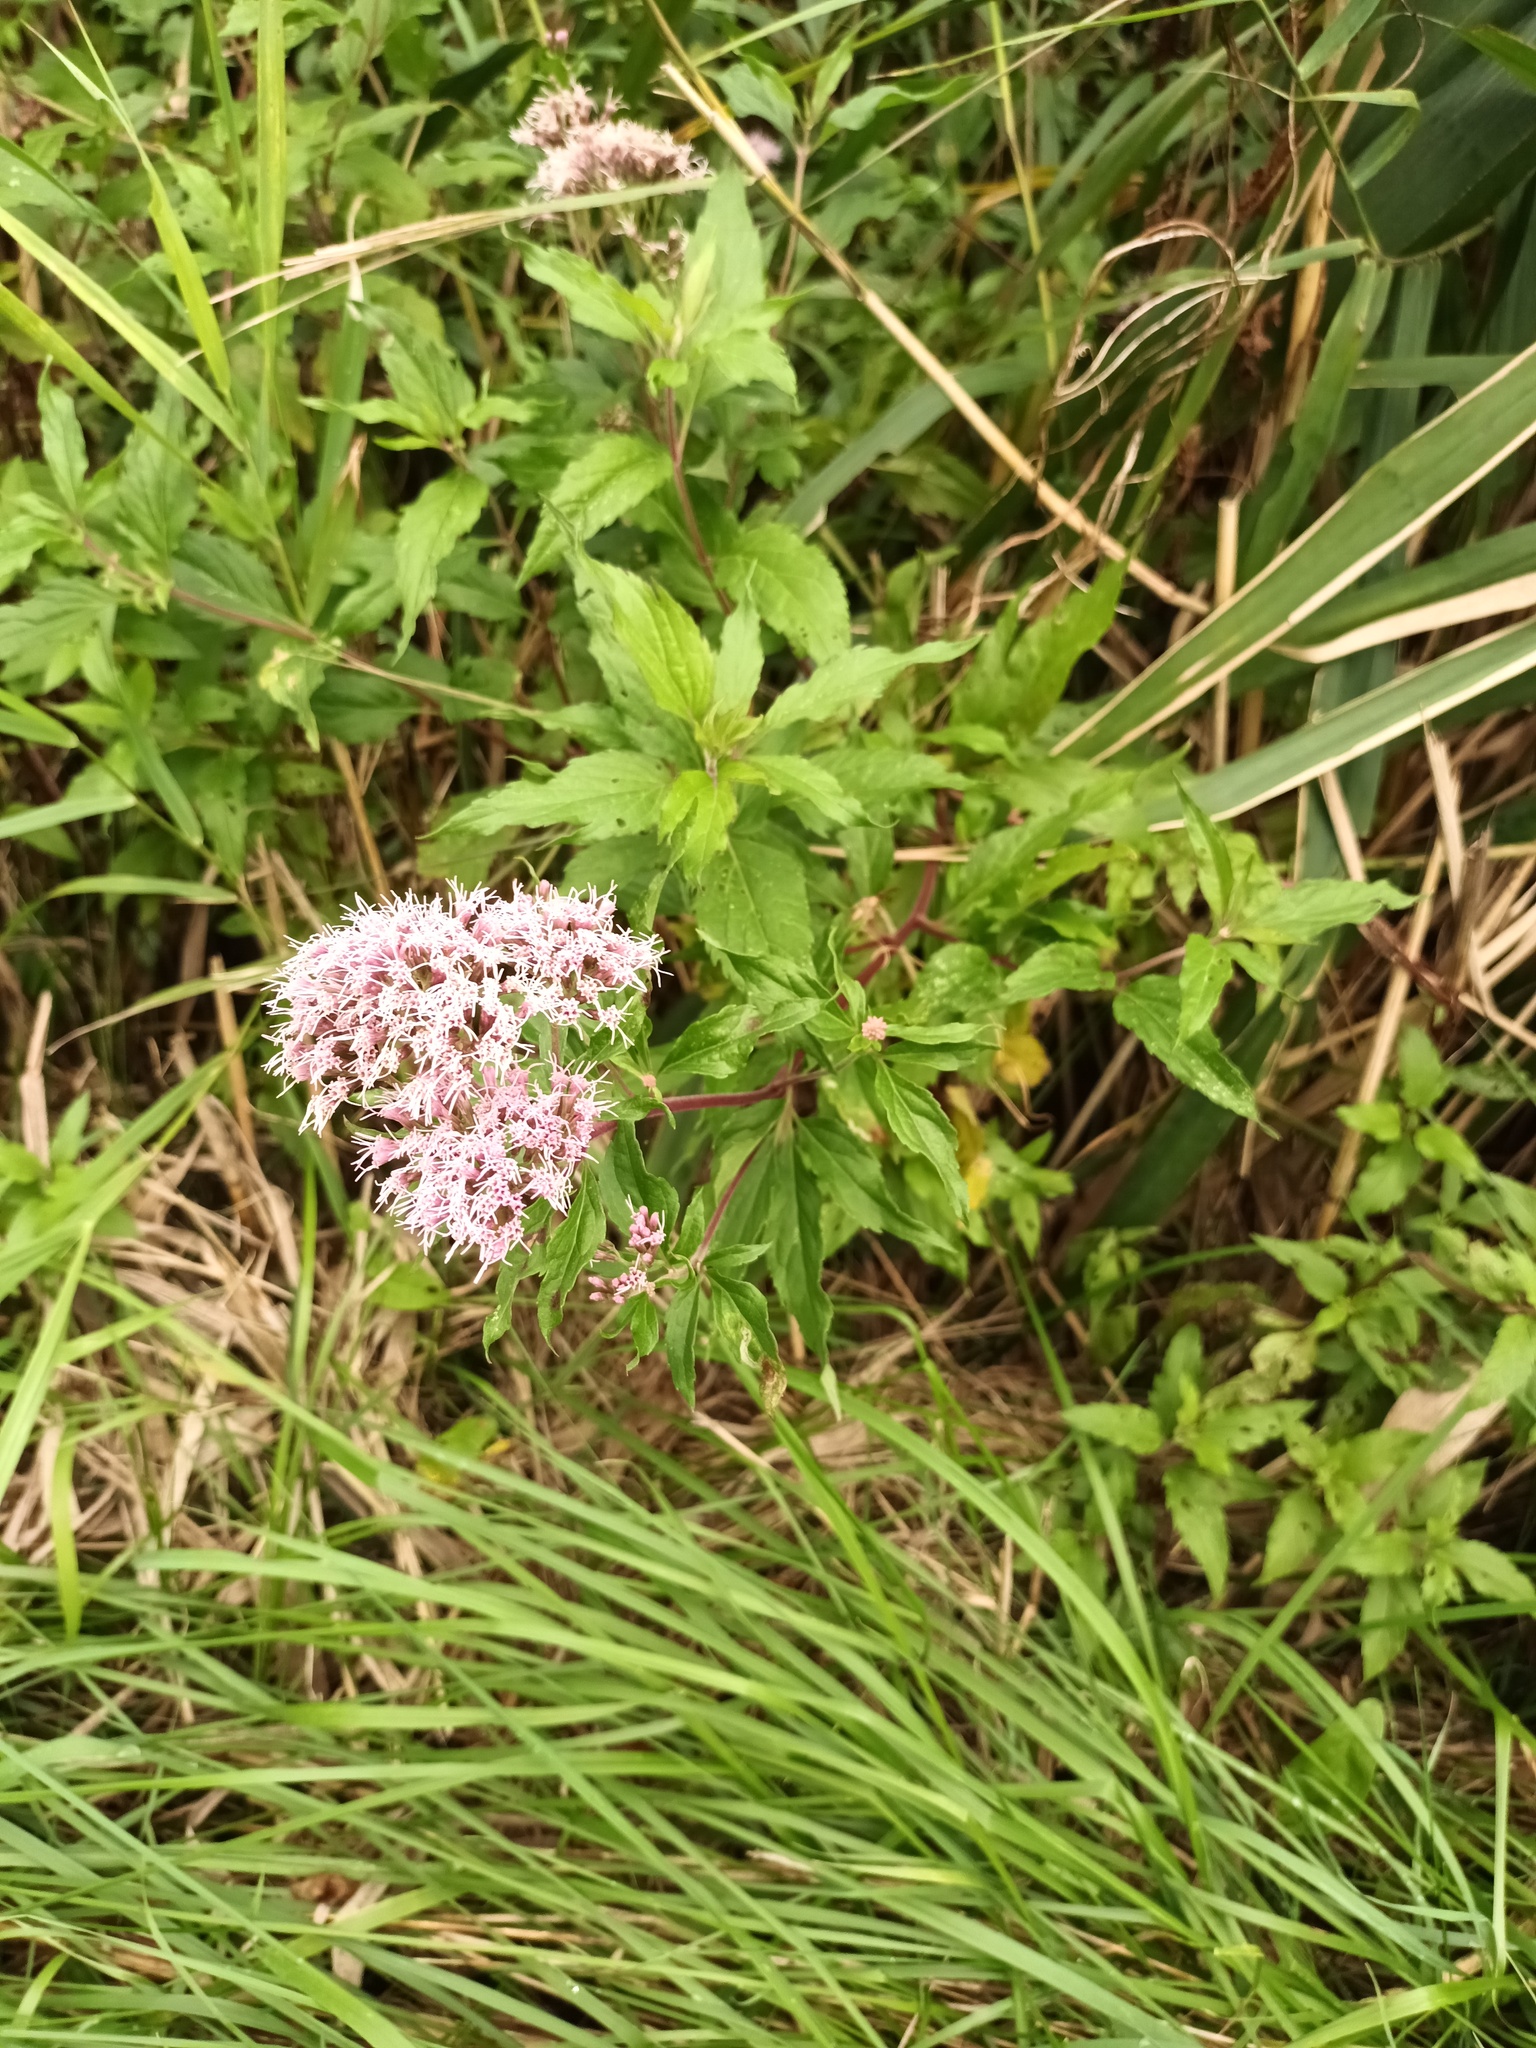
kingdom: Plantae
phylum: Tracheophyta
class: Magnoliopsida
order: Asterales
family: Asteraceae
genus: Eupatorium
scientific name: Eupatorium cannabinum
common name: Hemp-agrimony
